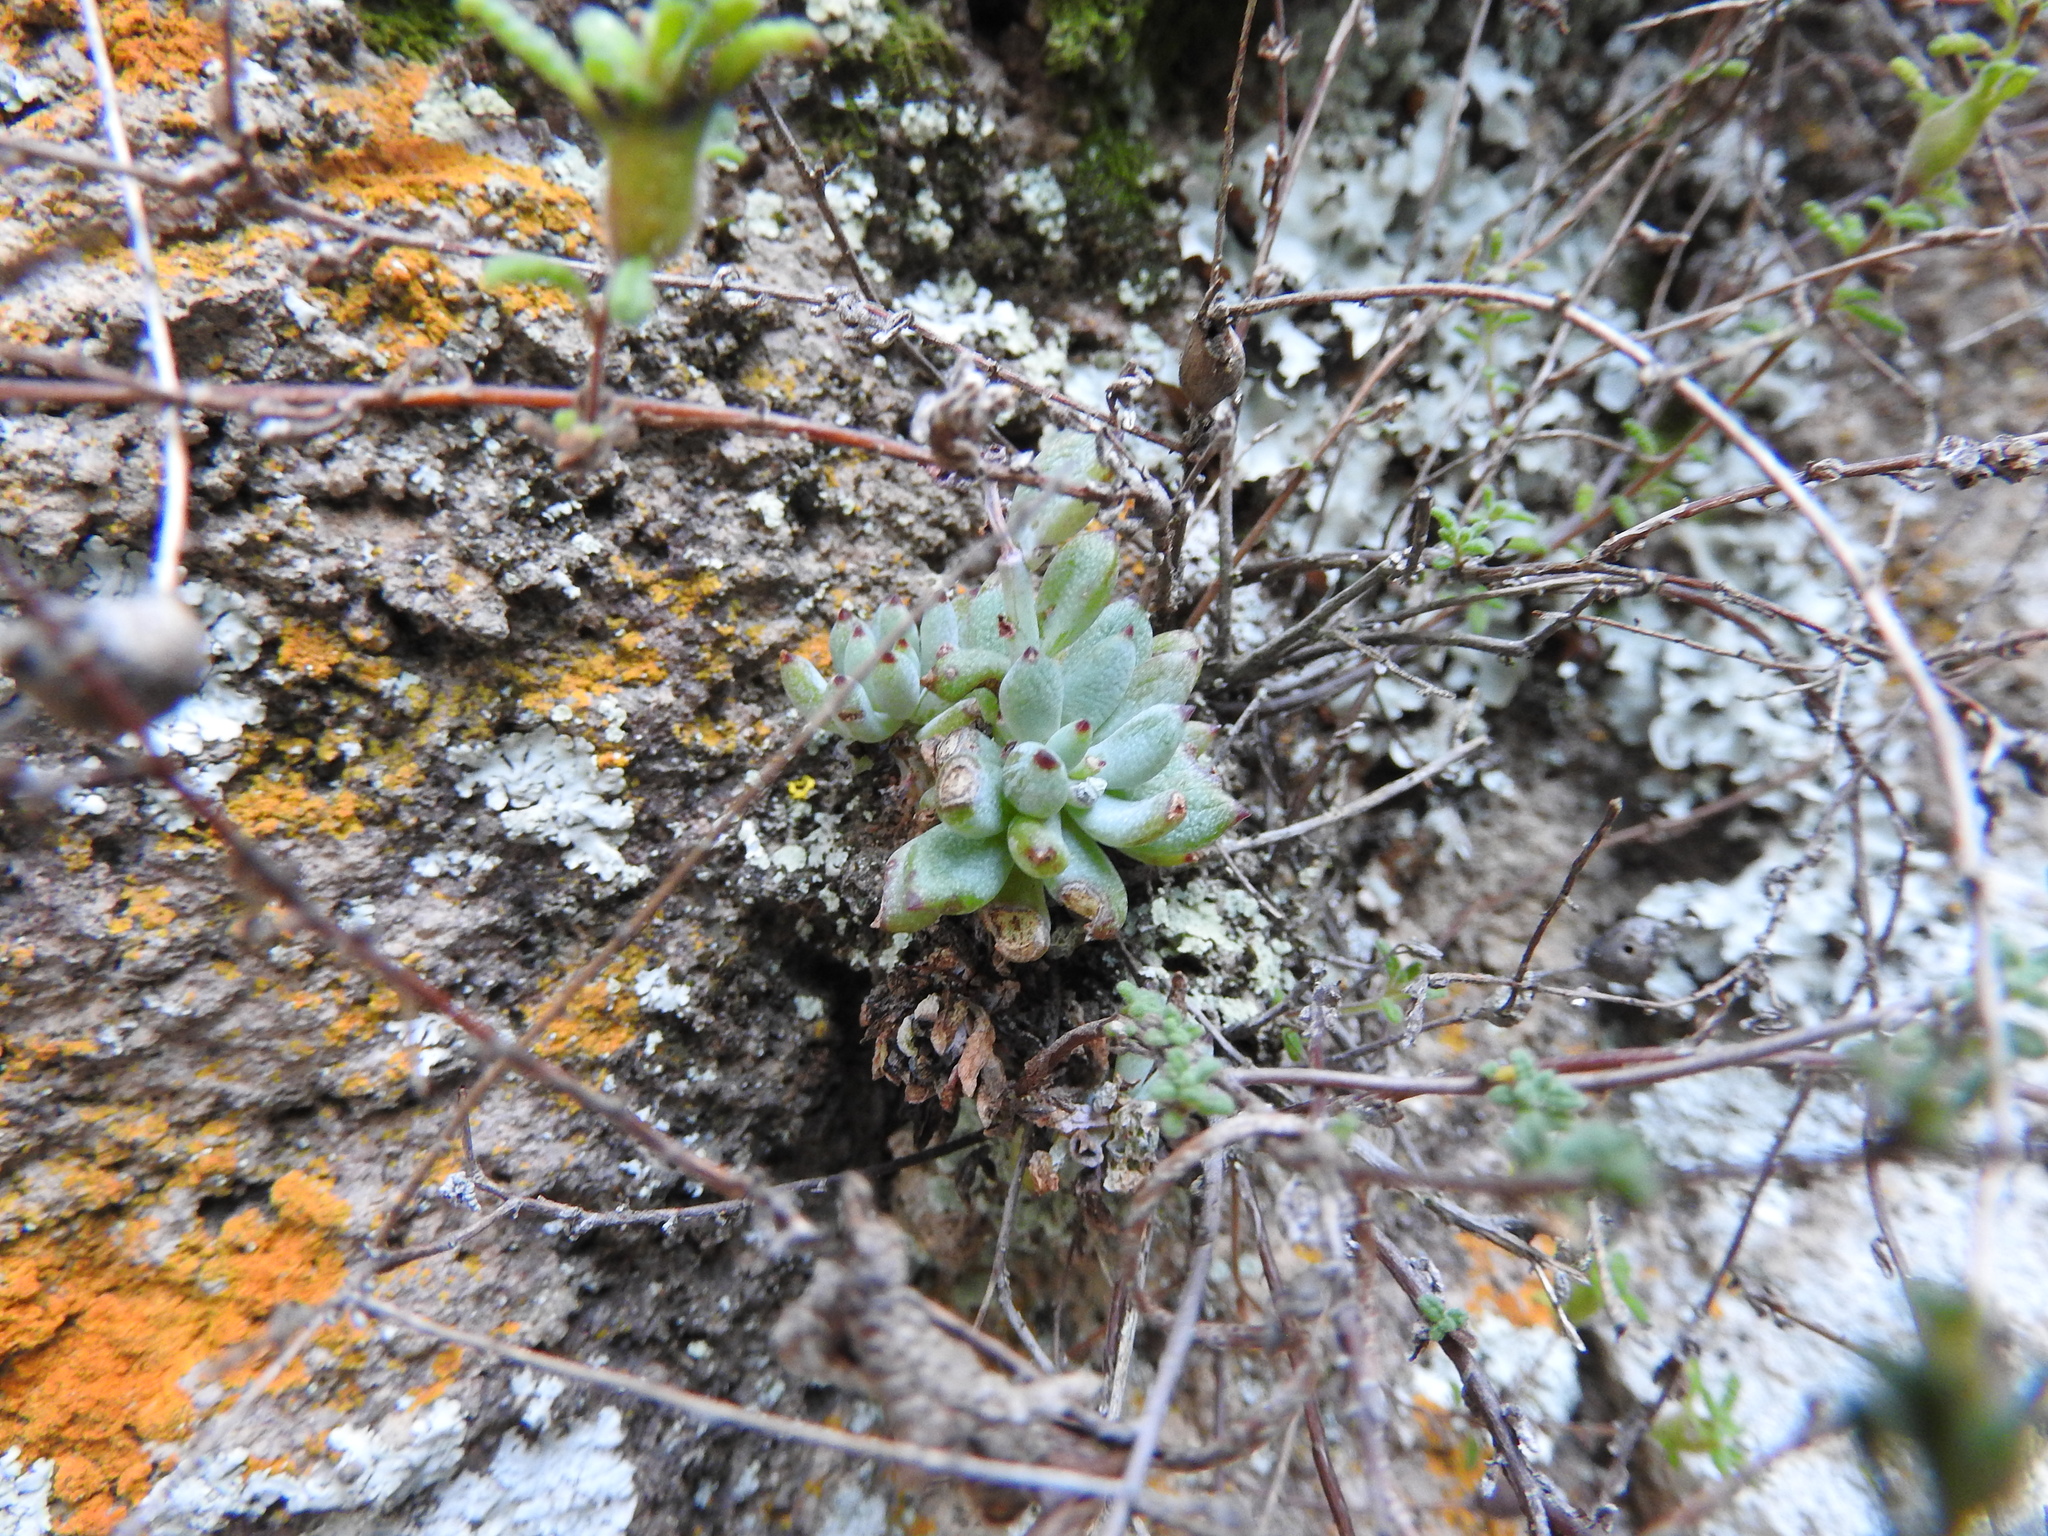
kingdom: Plantae
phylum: Tracheophyta
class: Magnoliopsida
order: Saxifragales
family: Crassulaceae
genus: Graptopetalum
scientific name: Graptopetalum pachyphyllum
